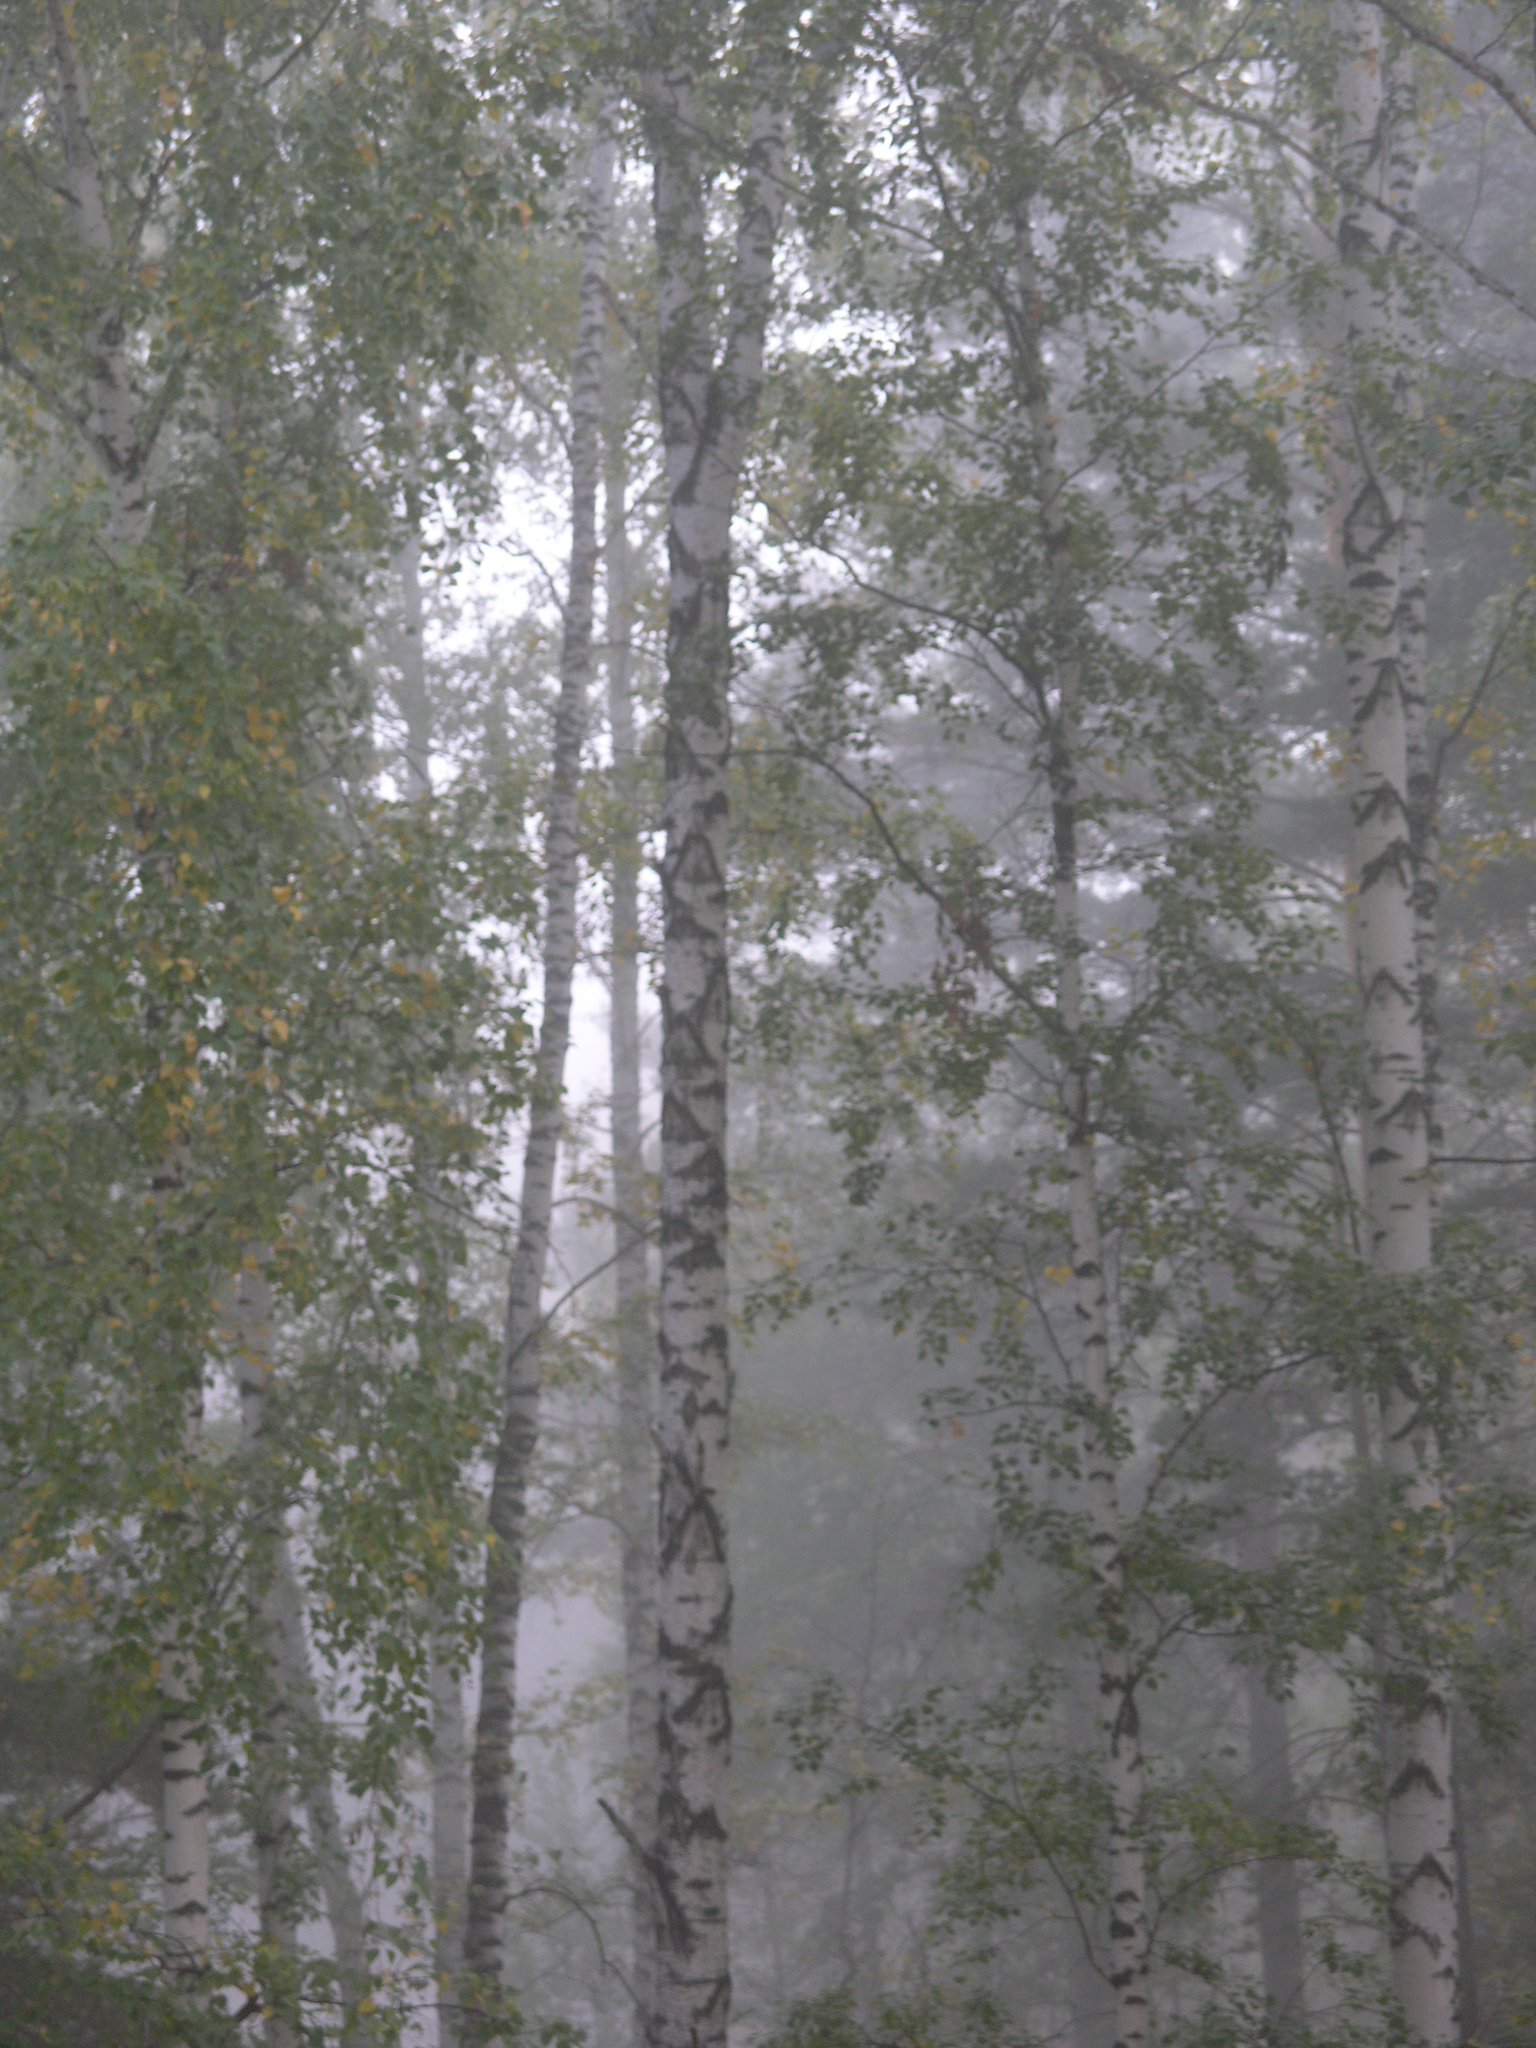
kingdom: Plantae
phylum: Tracheophyta
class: Magnoliopsida
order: Fagales
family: Betulaceae
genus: Betula
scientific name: Betula pendula
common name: Silver birch
